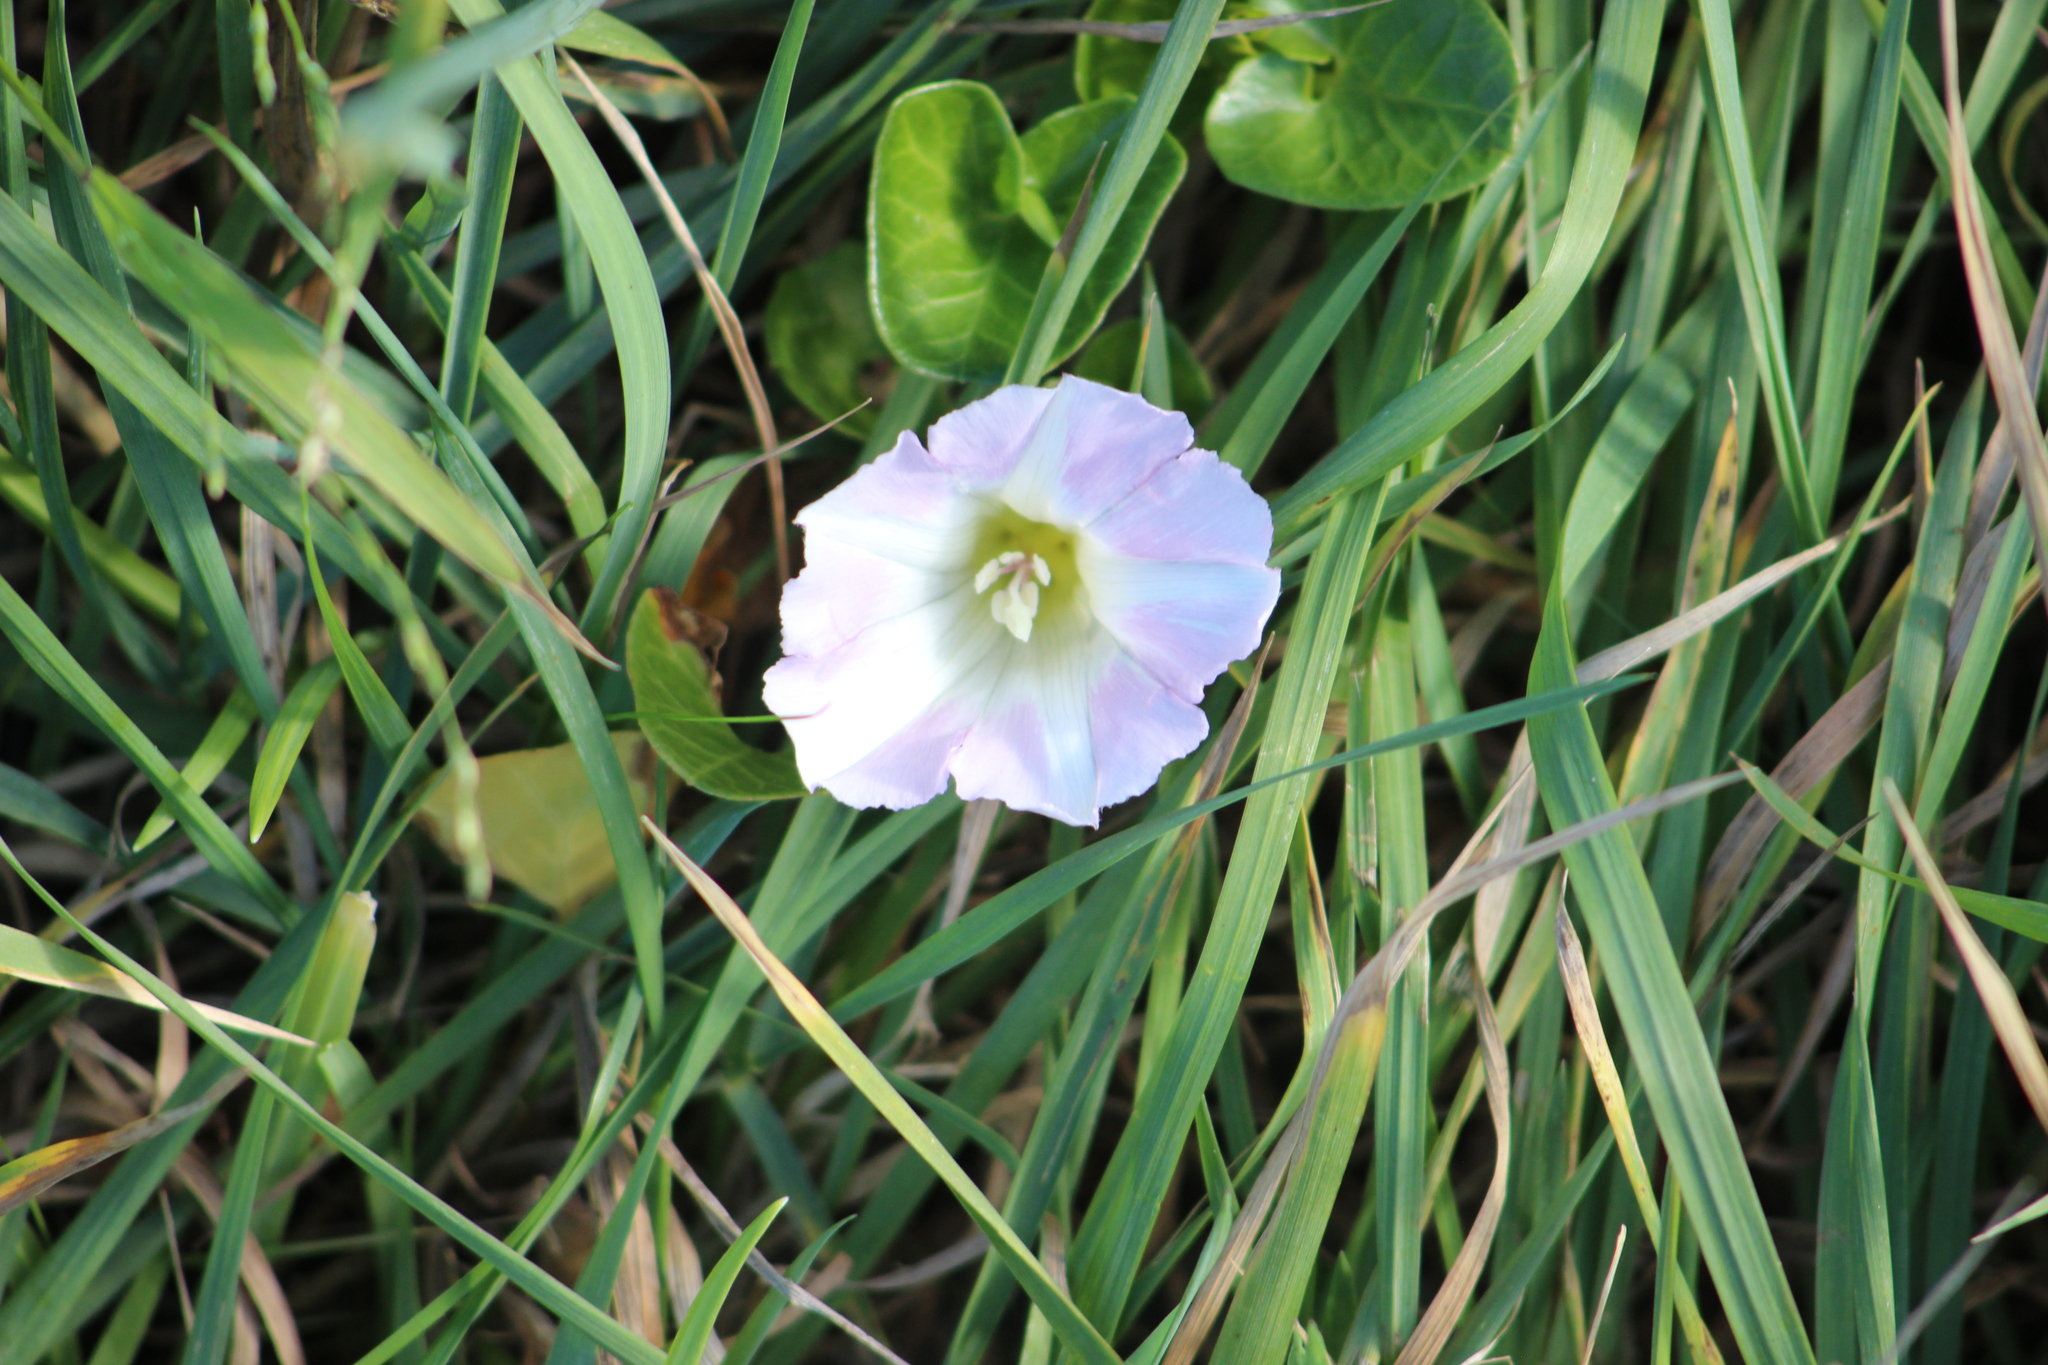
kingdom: Plantae
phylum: Tracheophyta
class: Magnoliopsida
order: Solanales
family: Convolvulaceae
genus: Calystegia
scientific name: Calystegia soldanella
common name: Sea bindweed
